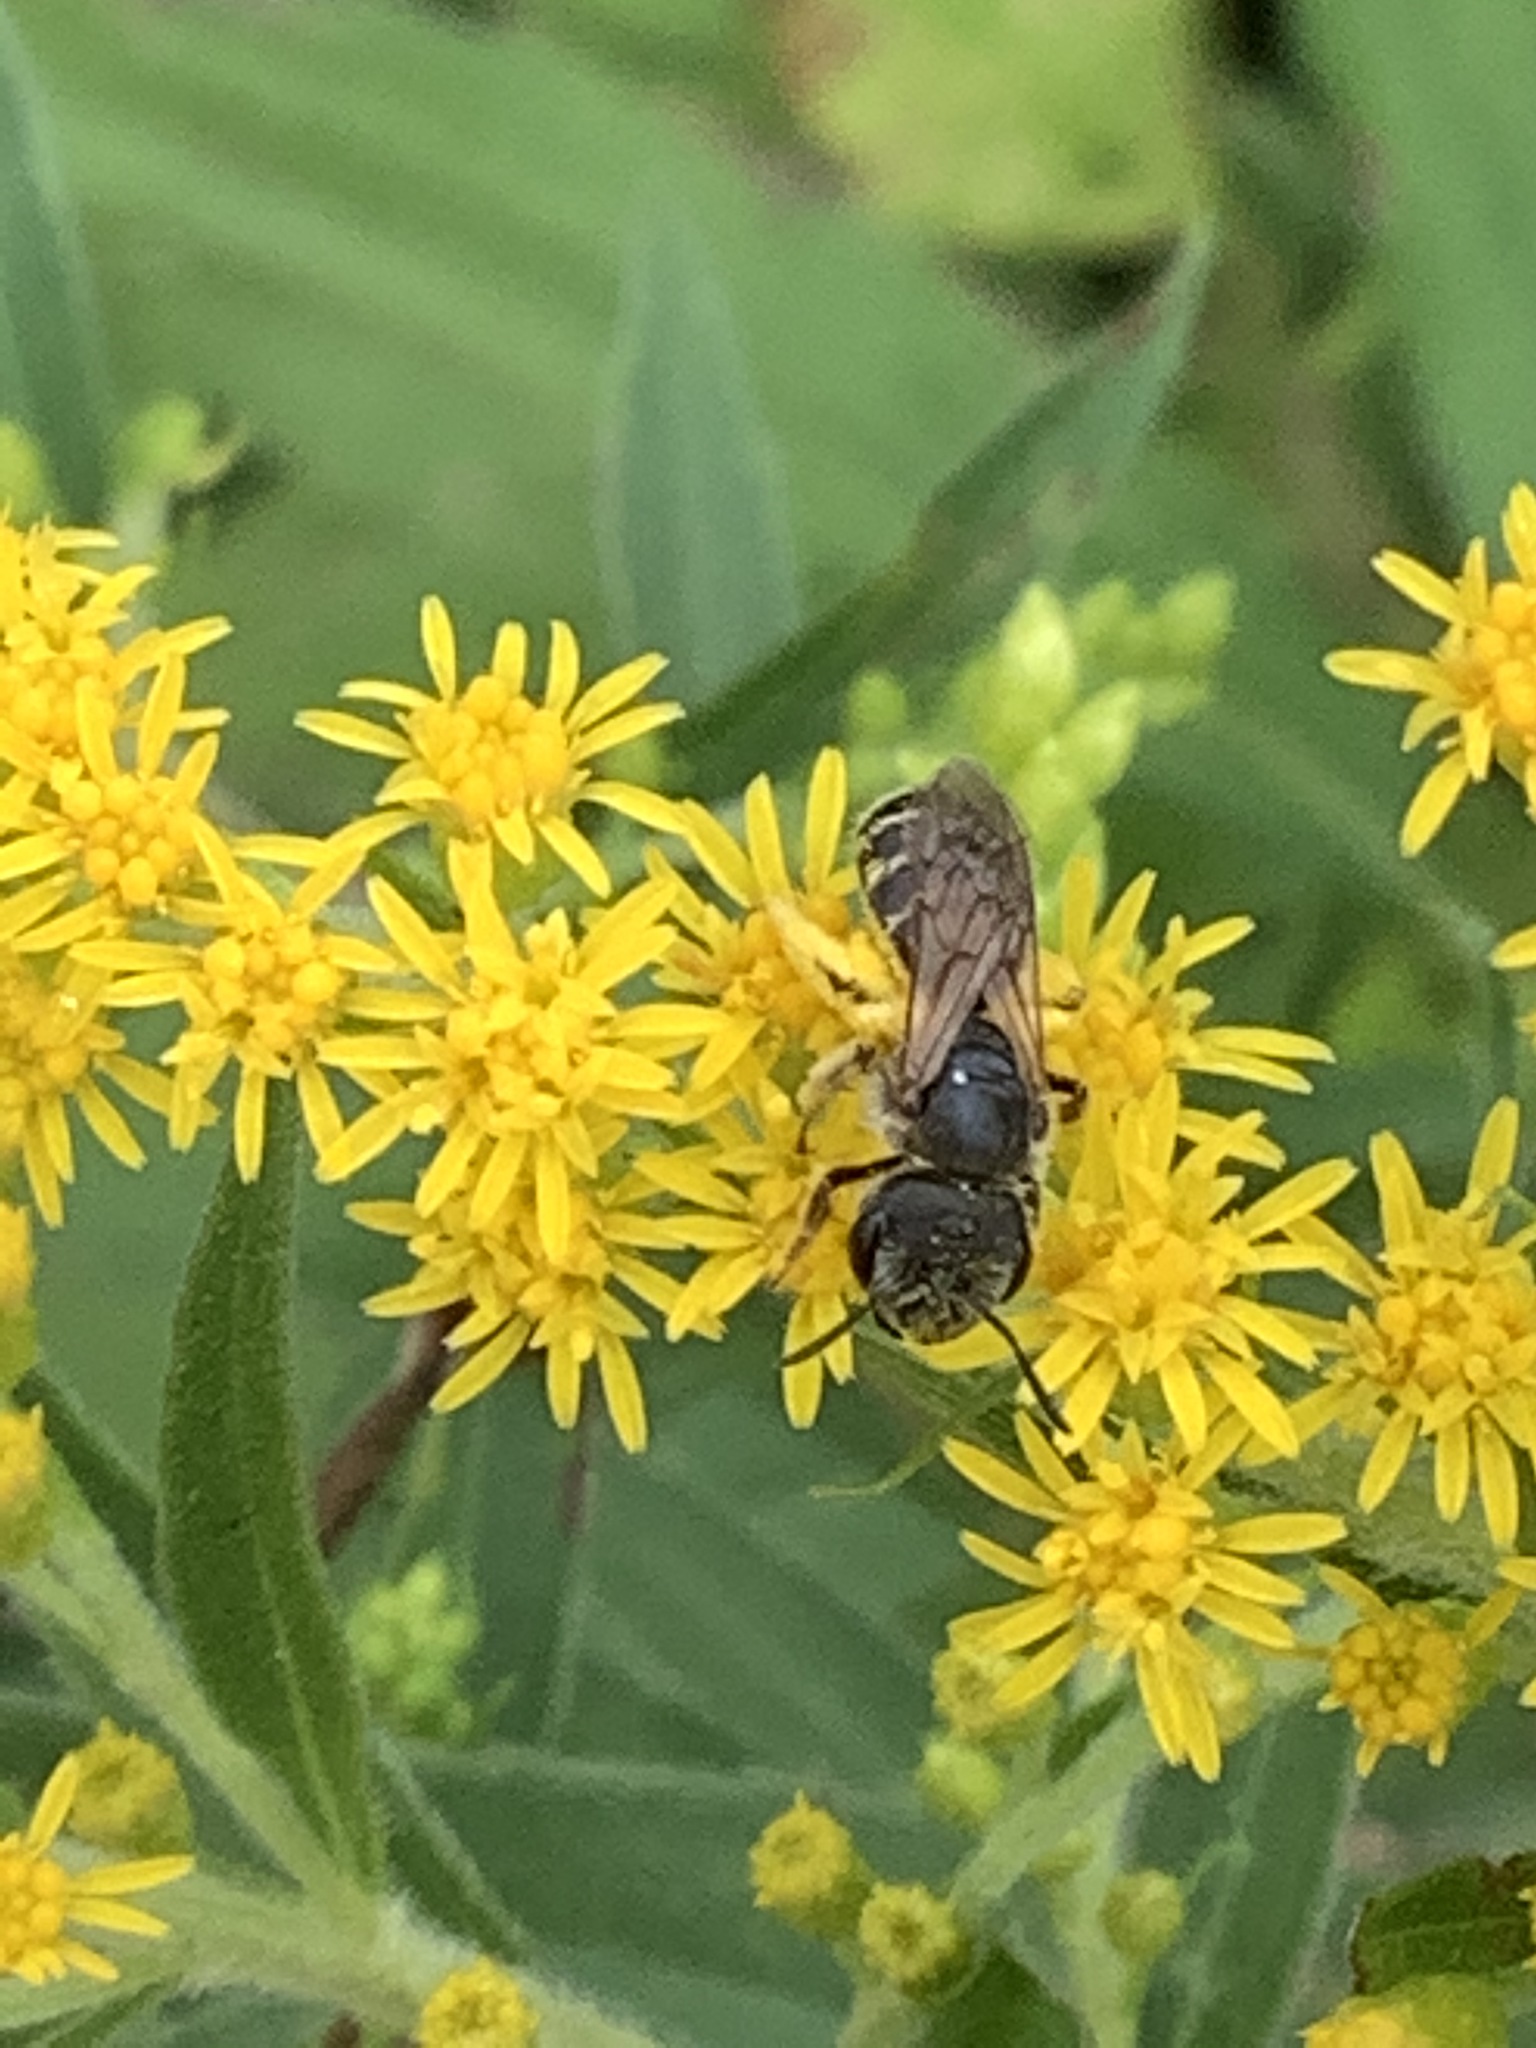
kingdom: Animalia
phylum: Arthropoda
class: Insecta
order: Hymenoptera
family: Halictidae
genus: Halictus
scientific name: Halictus ligatus
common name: Ligated furrow bee
